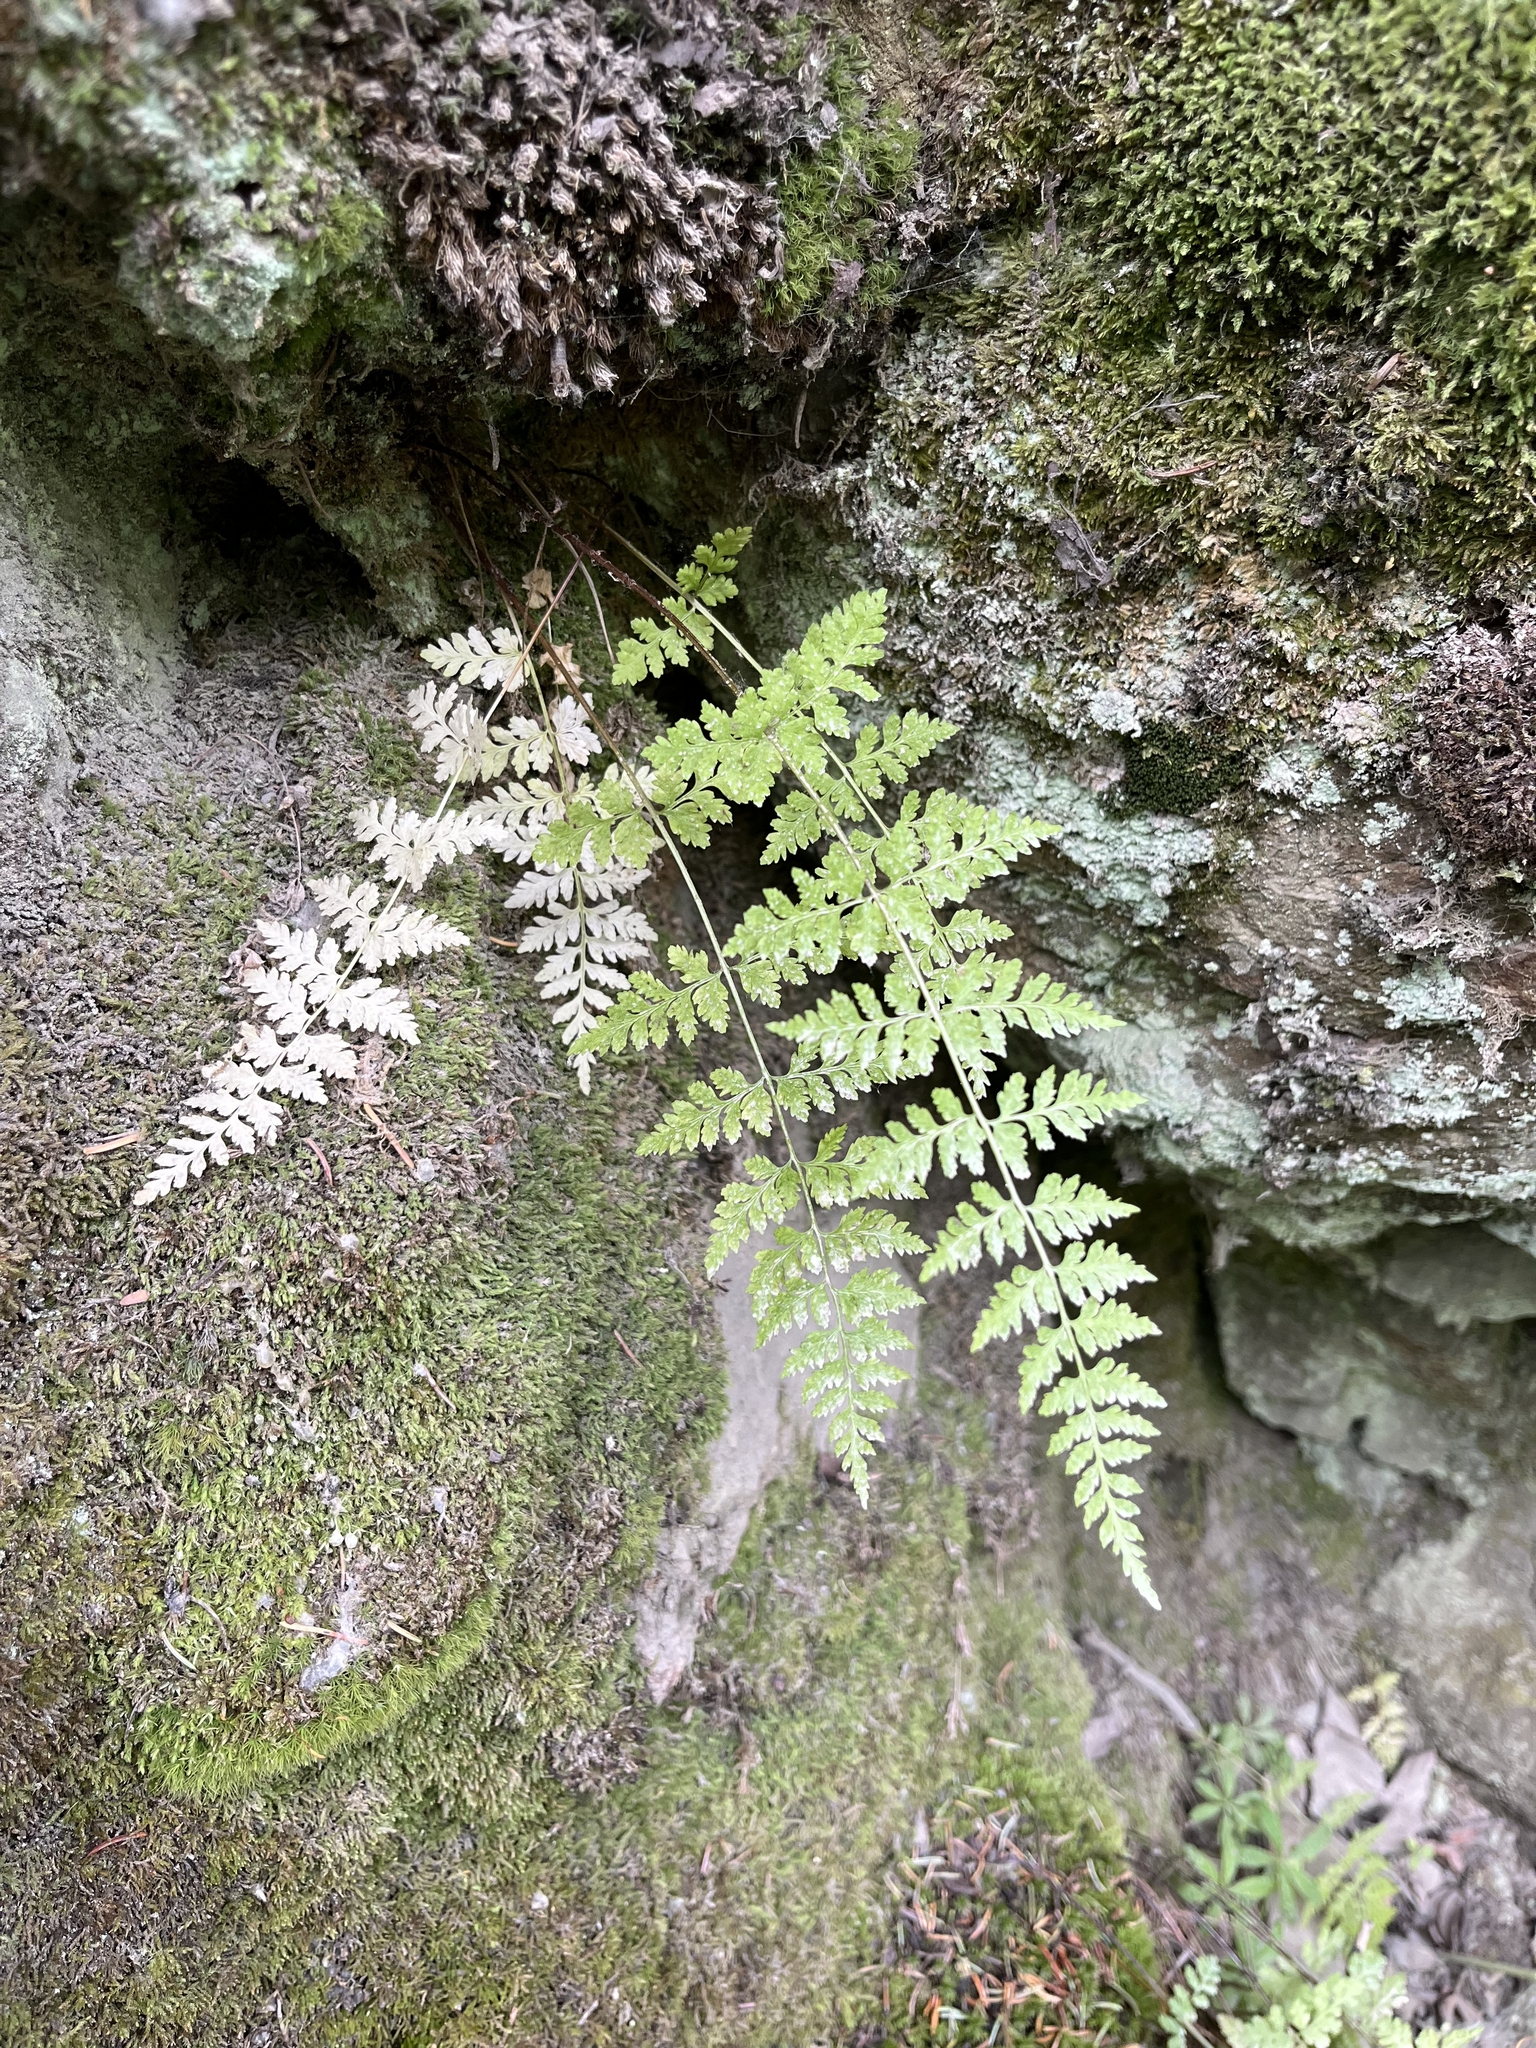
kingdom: Plantae
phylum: Tracheophyta
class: Polypodiopsida
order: Polypodiales
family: Cystopteridaceae
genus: Cystopteris
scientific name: Cystopteris fragilis
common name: Brittle bladder fern
